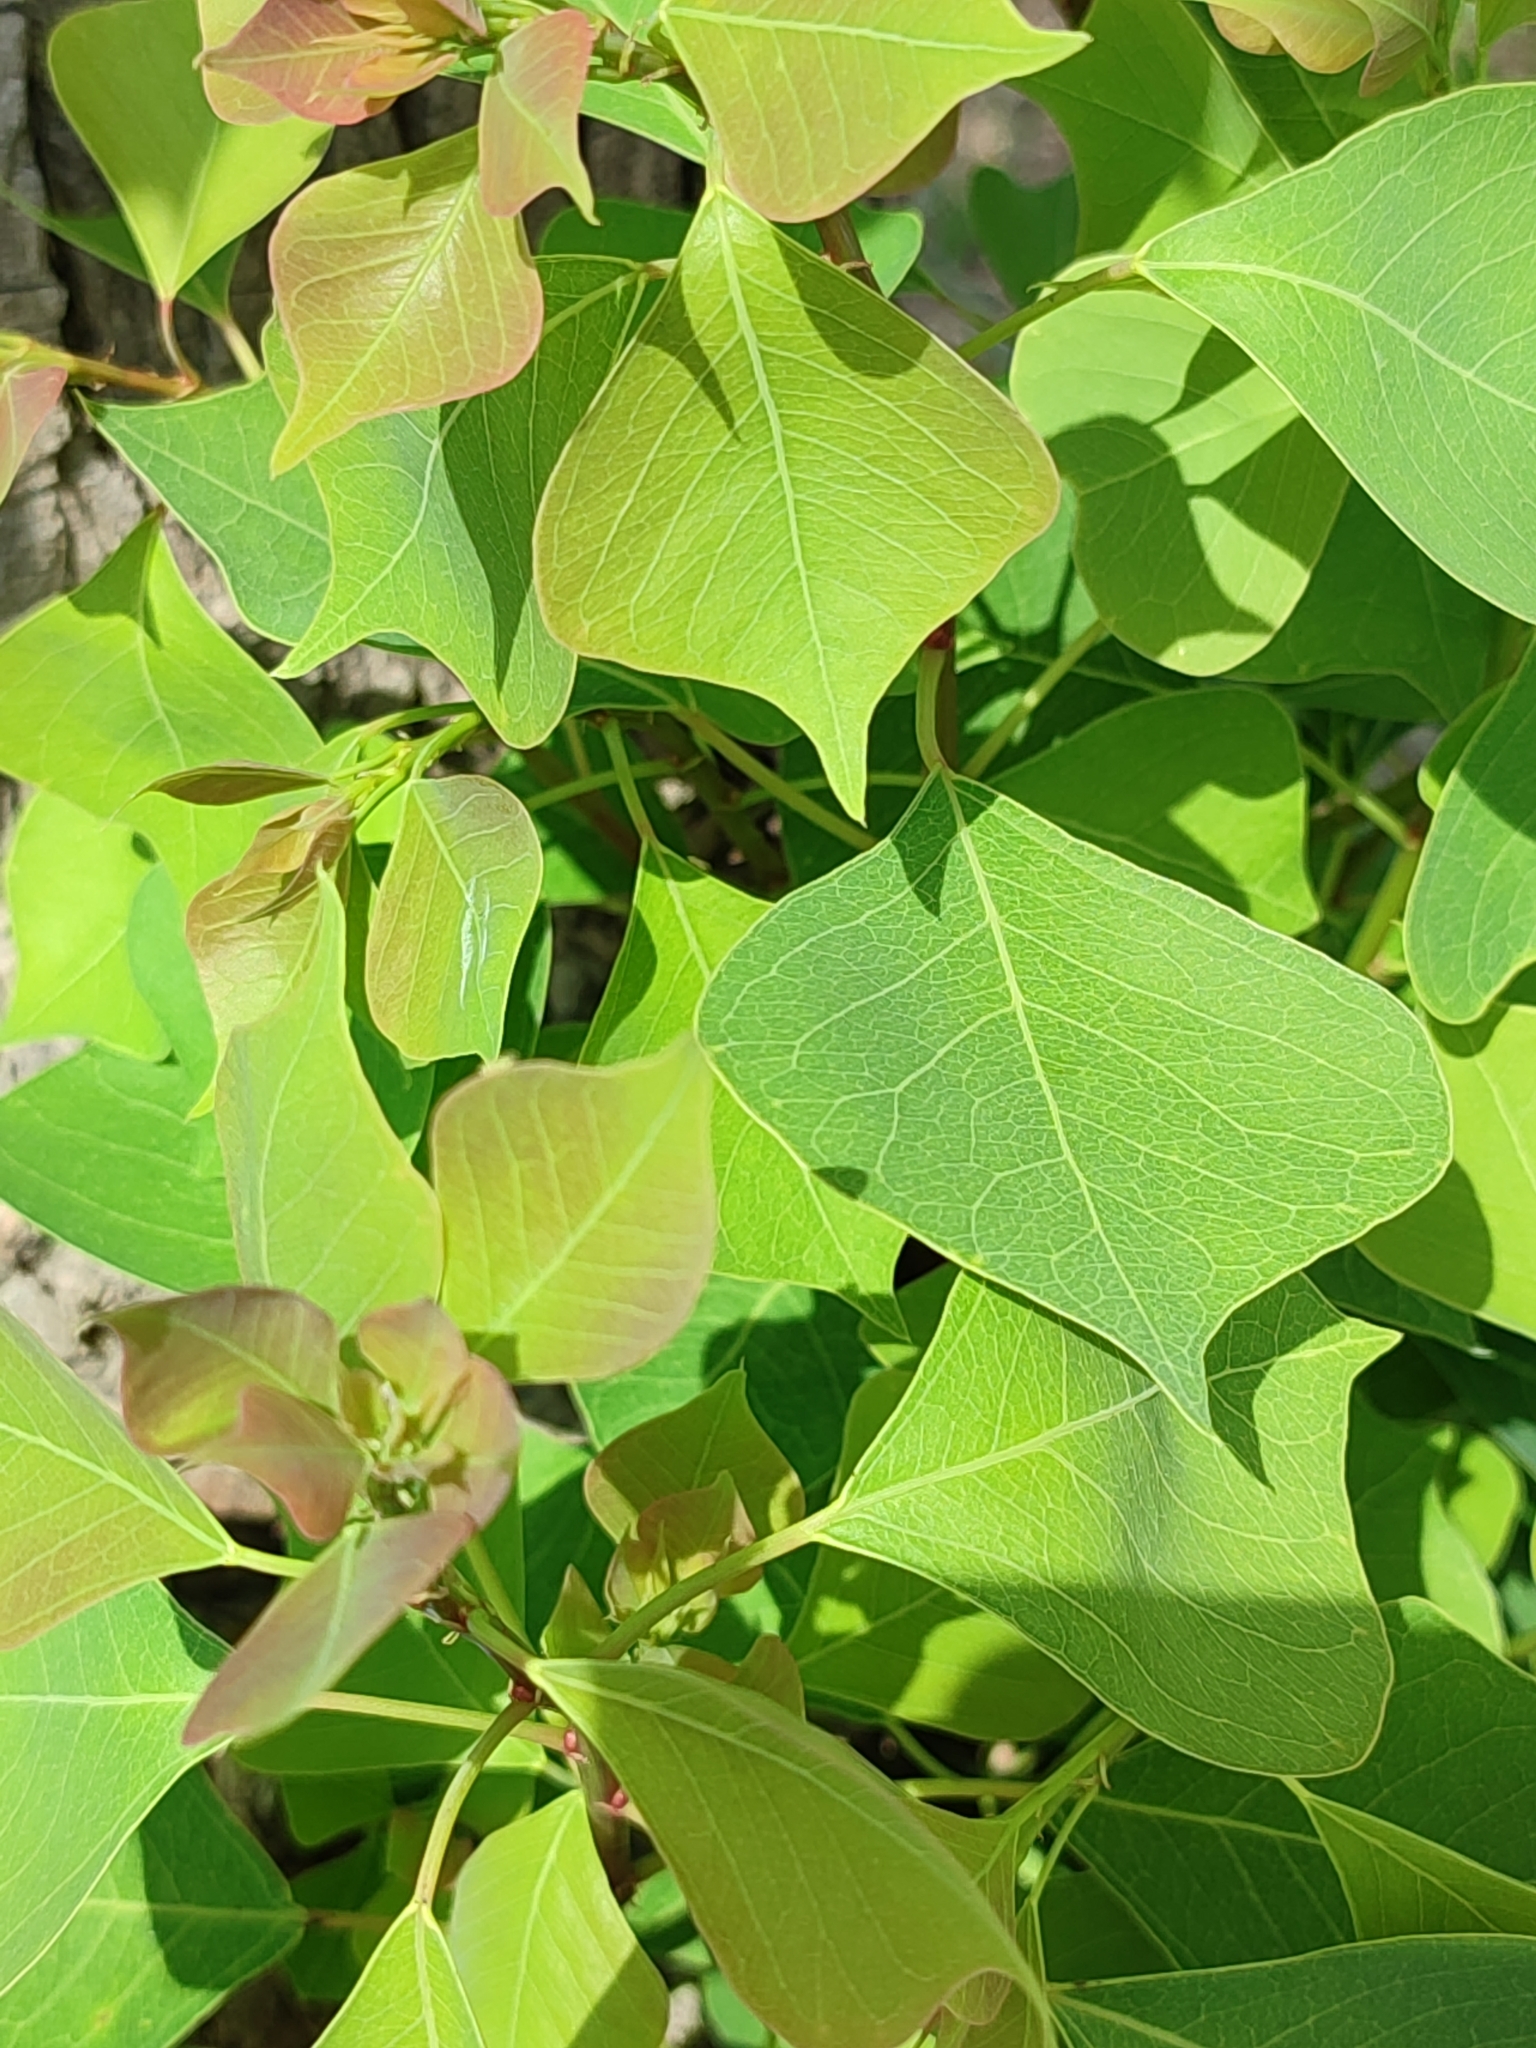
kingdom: Plantae
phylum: Tracheophyta
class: Magnoliopsida
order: Malpighiales
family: Euphorbiaceae
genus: Triadica
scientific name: Triadica sebifera
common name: Chinese tallow
